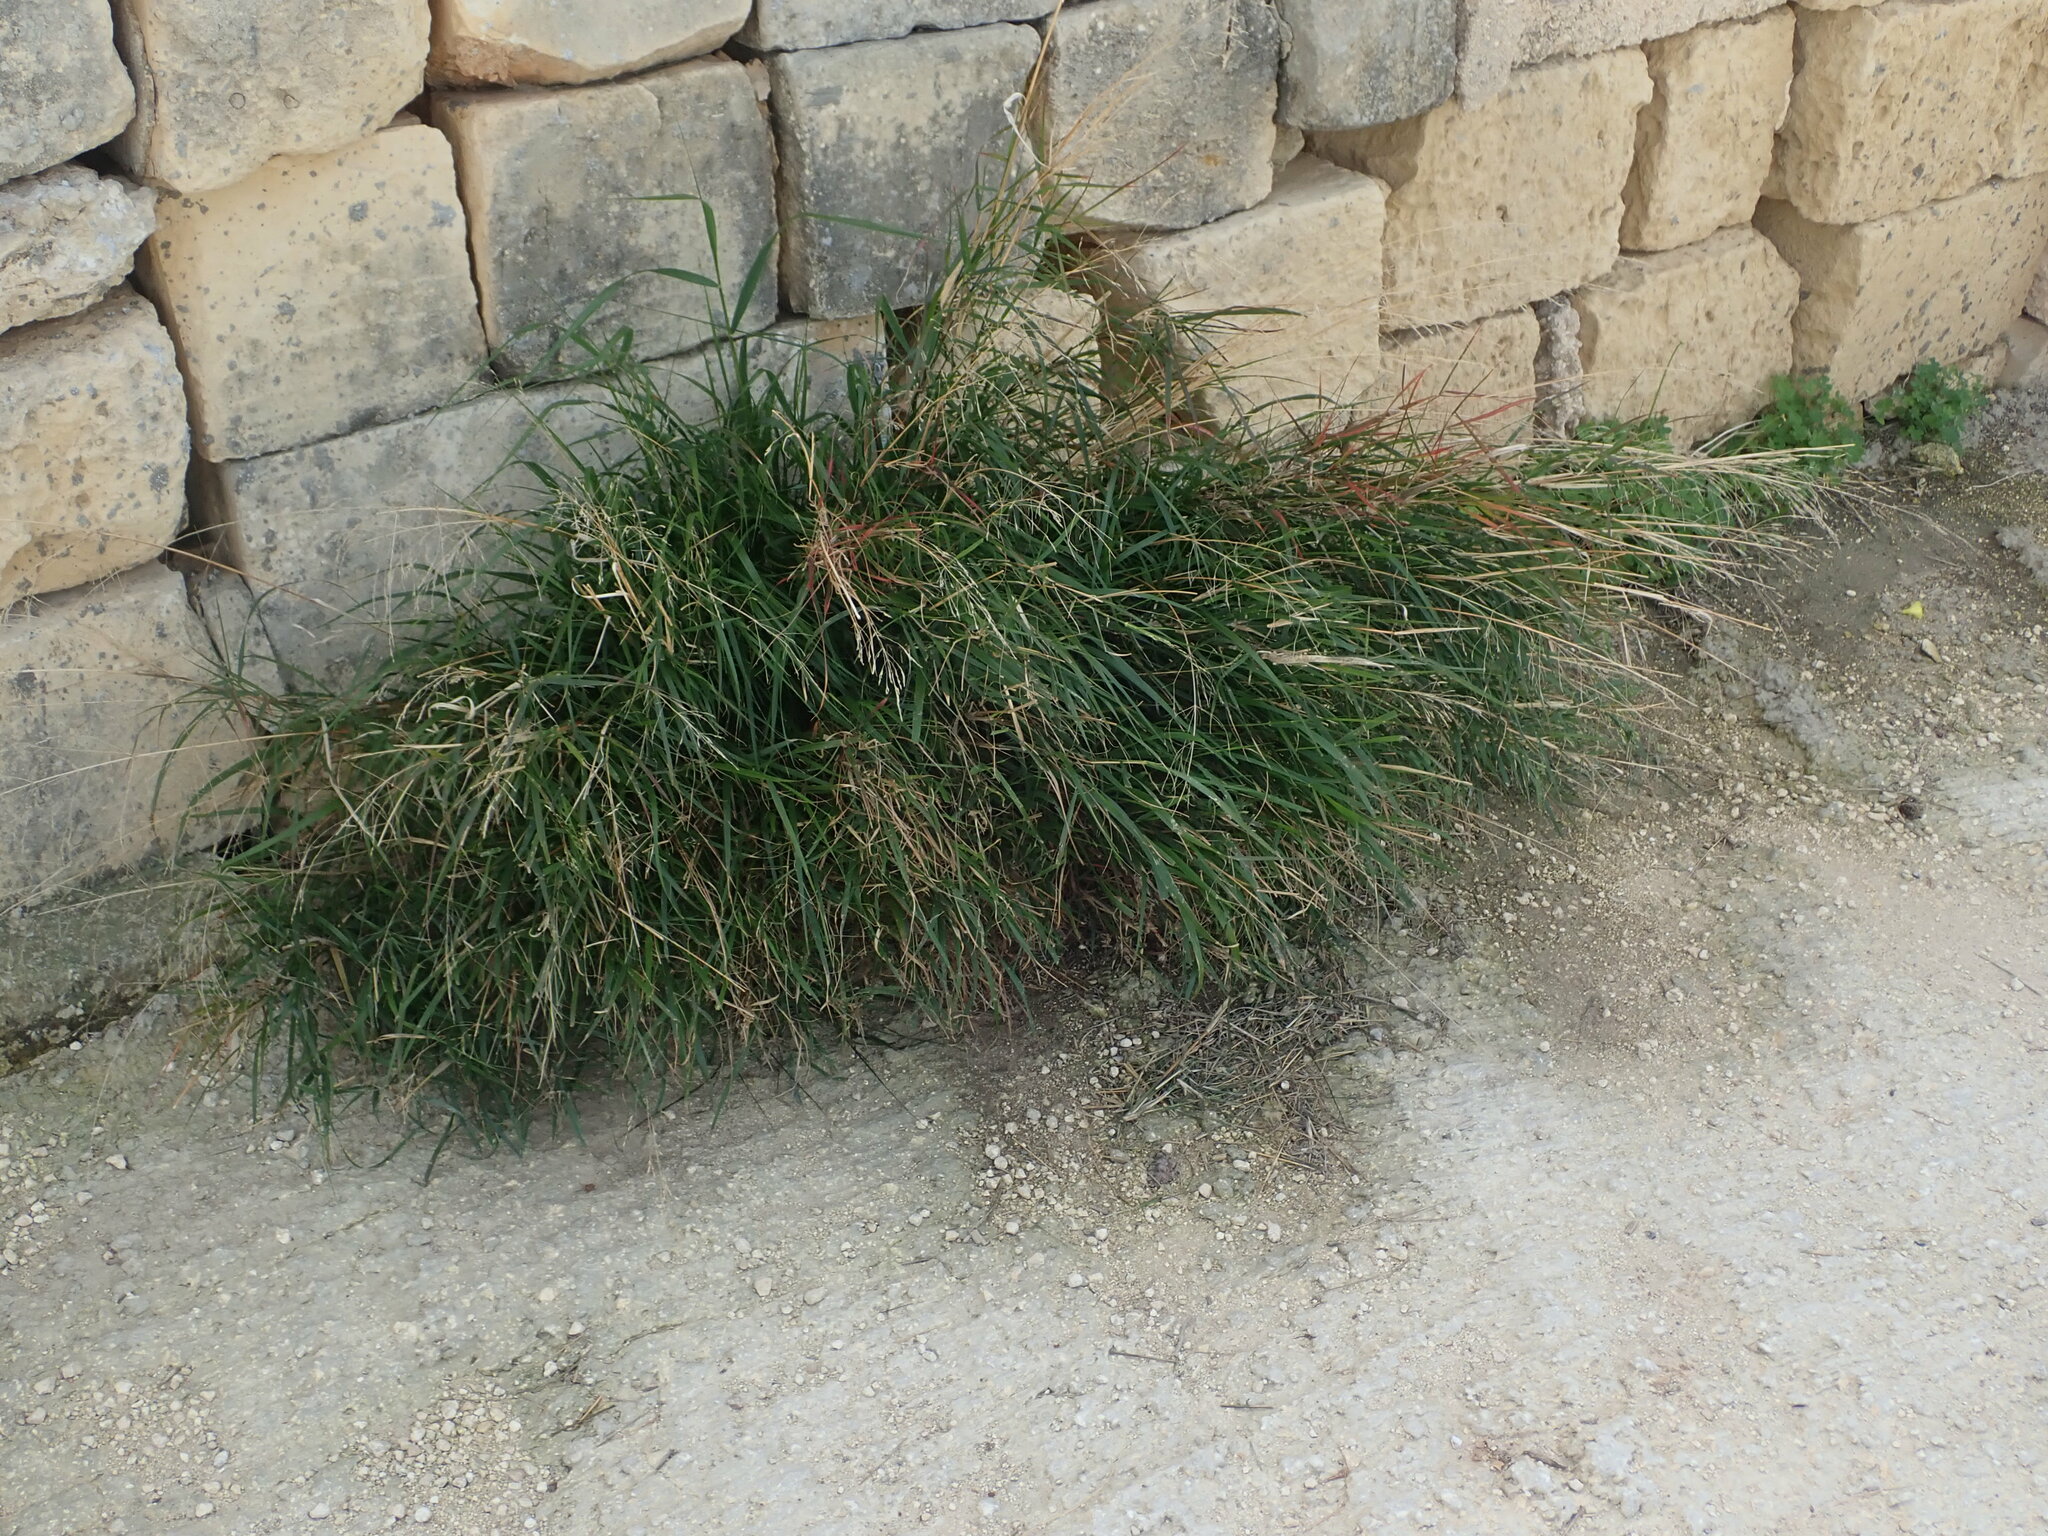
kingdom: Plantae
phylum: Tracheophyta
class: Liliopsida
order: Poales
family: Poaceae
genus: Oloptum
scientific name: Oloptum miliaceum
